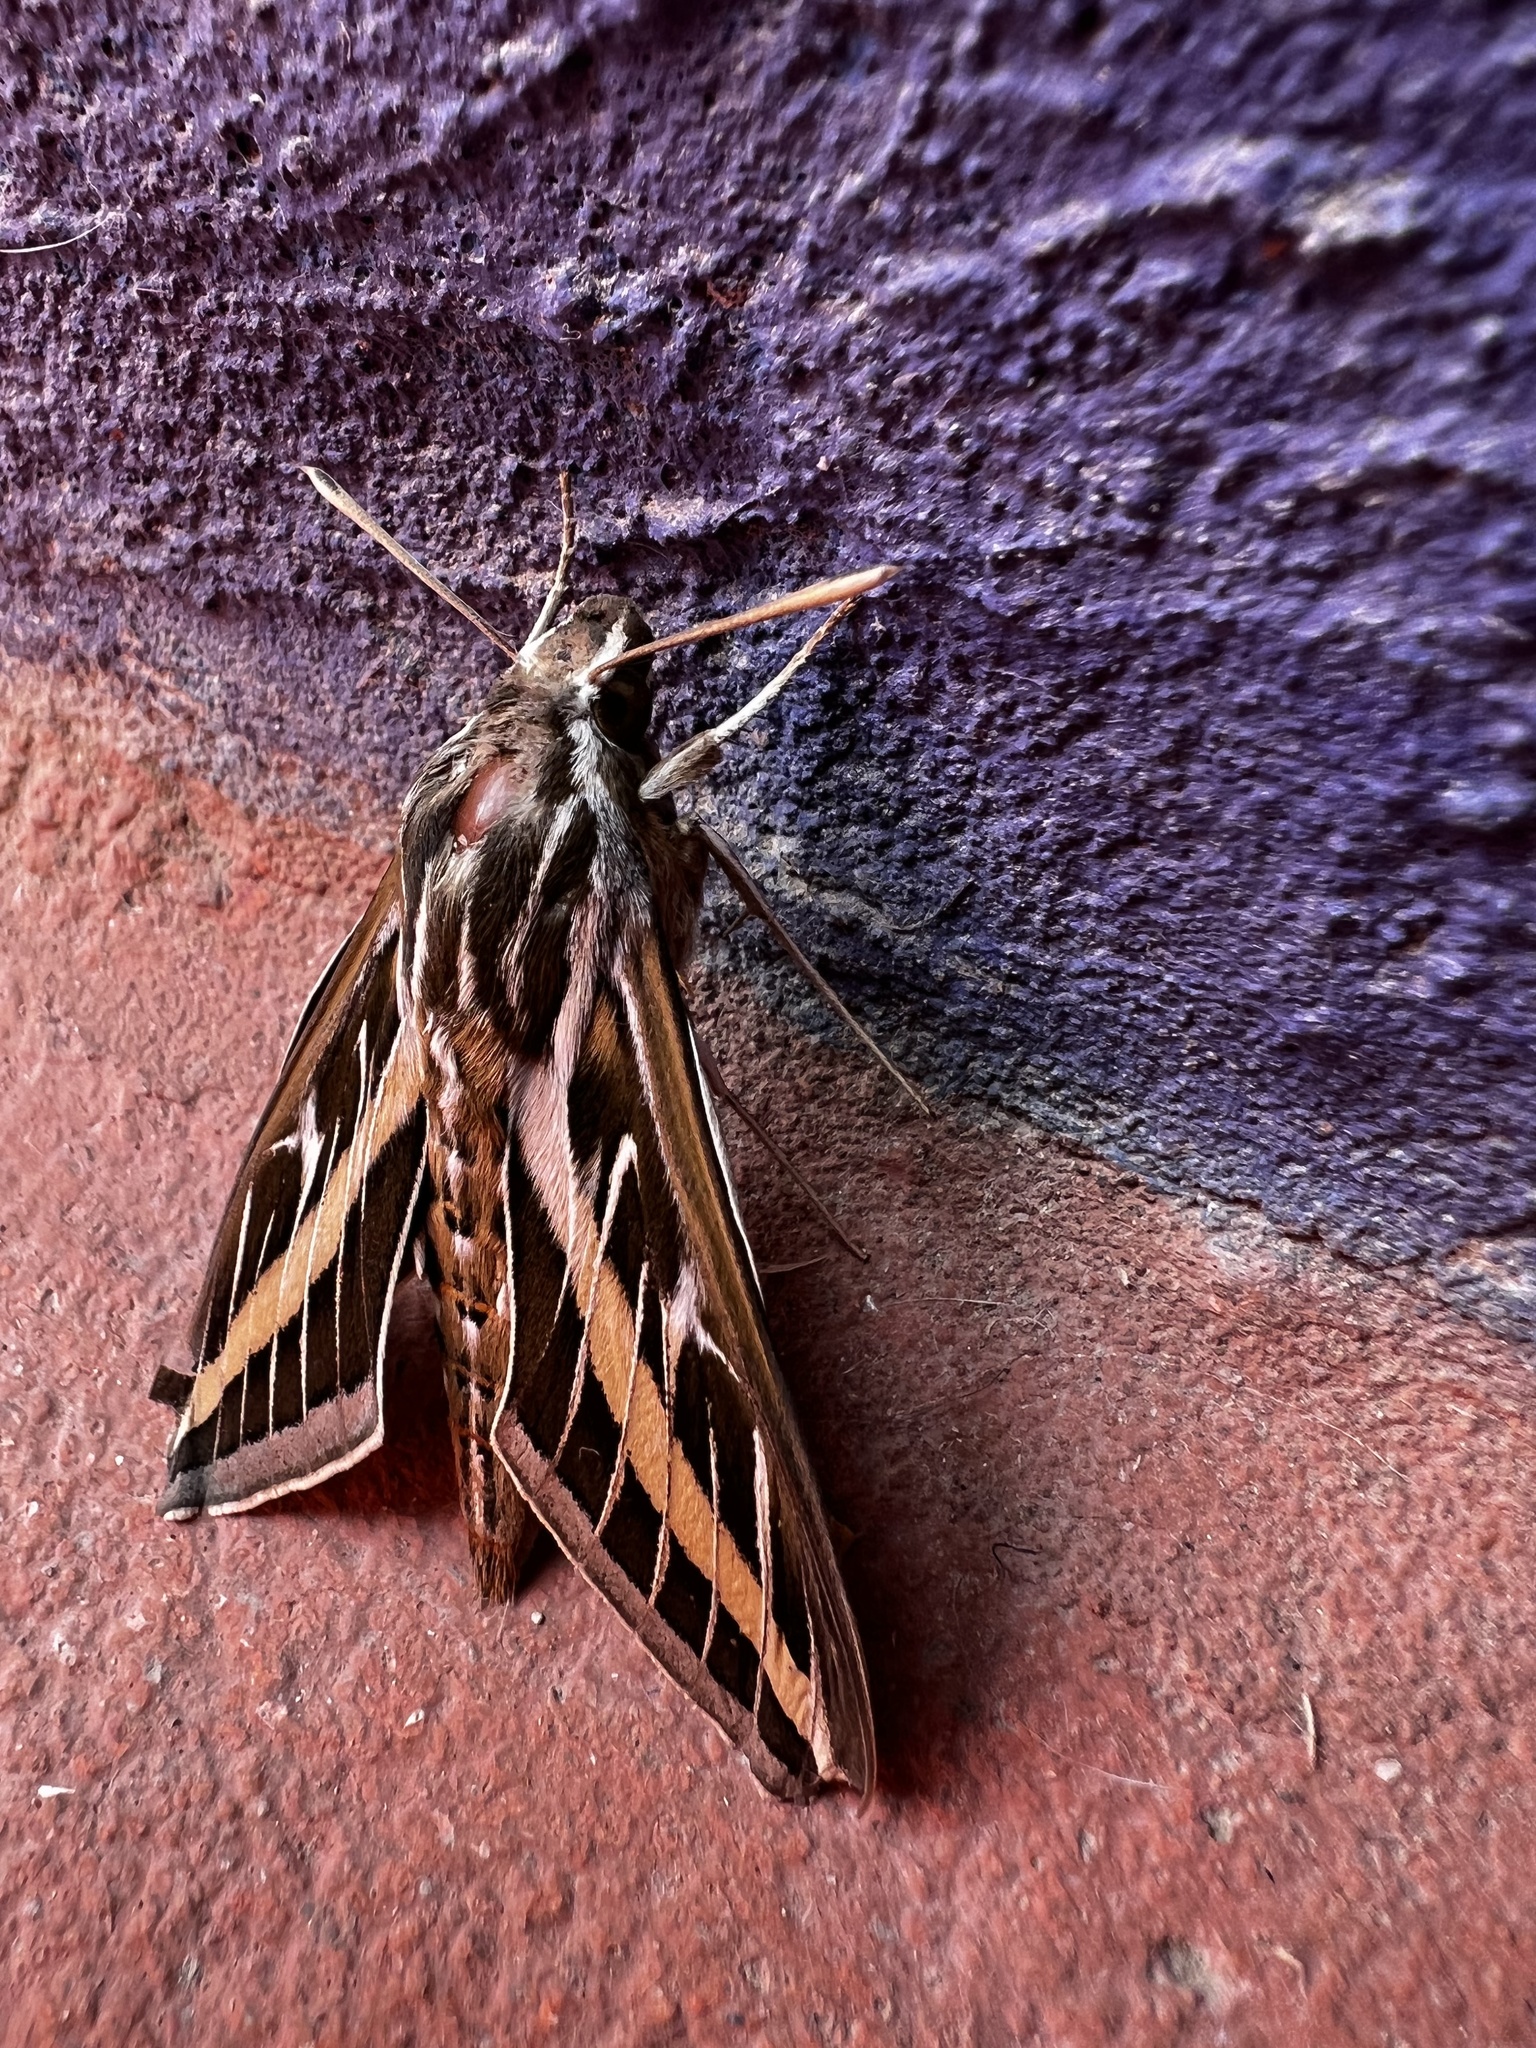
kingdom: Animalia
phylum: Arthropoda
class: Insecta
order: Lepidoptera
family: Sphingidae
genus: Hyles
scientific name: Hyles lineata
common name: White-lined sphinx
